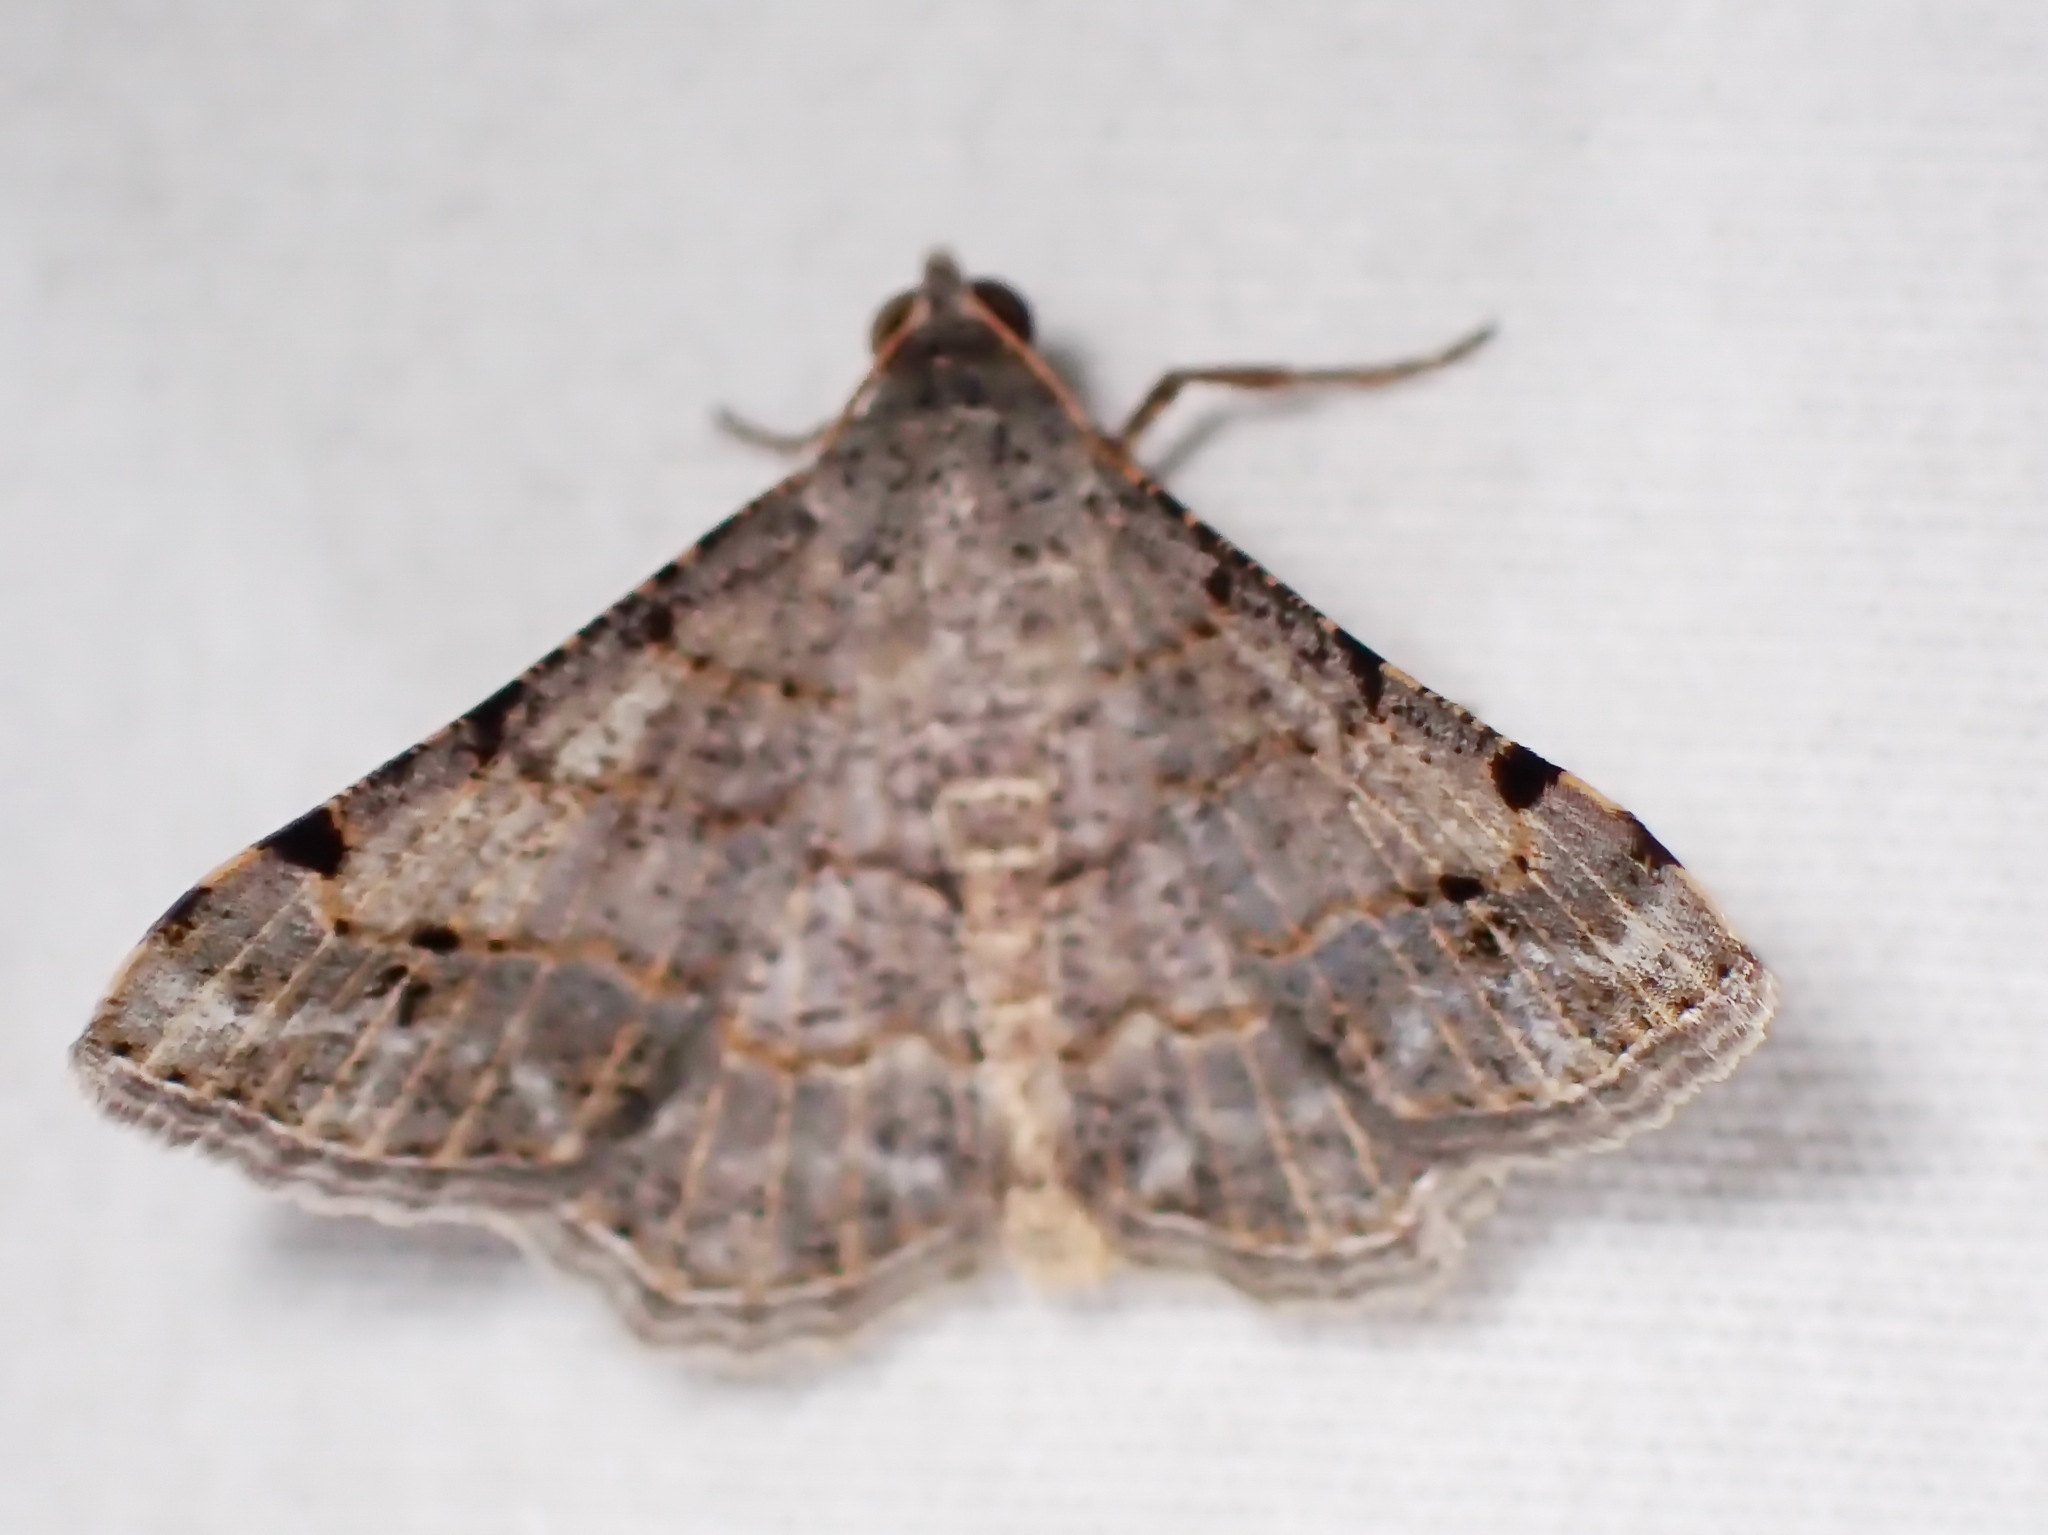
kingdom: Animalia
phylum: Arthropoda
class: Insecta
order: Lepidoptera
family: Geometridae
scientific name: Geometridae
